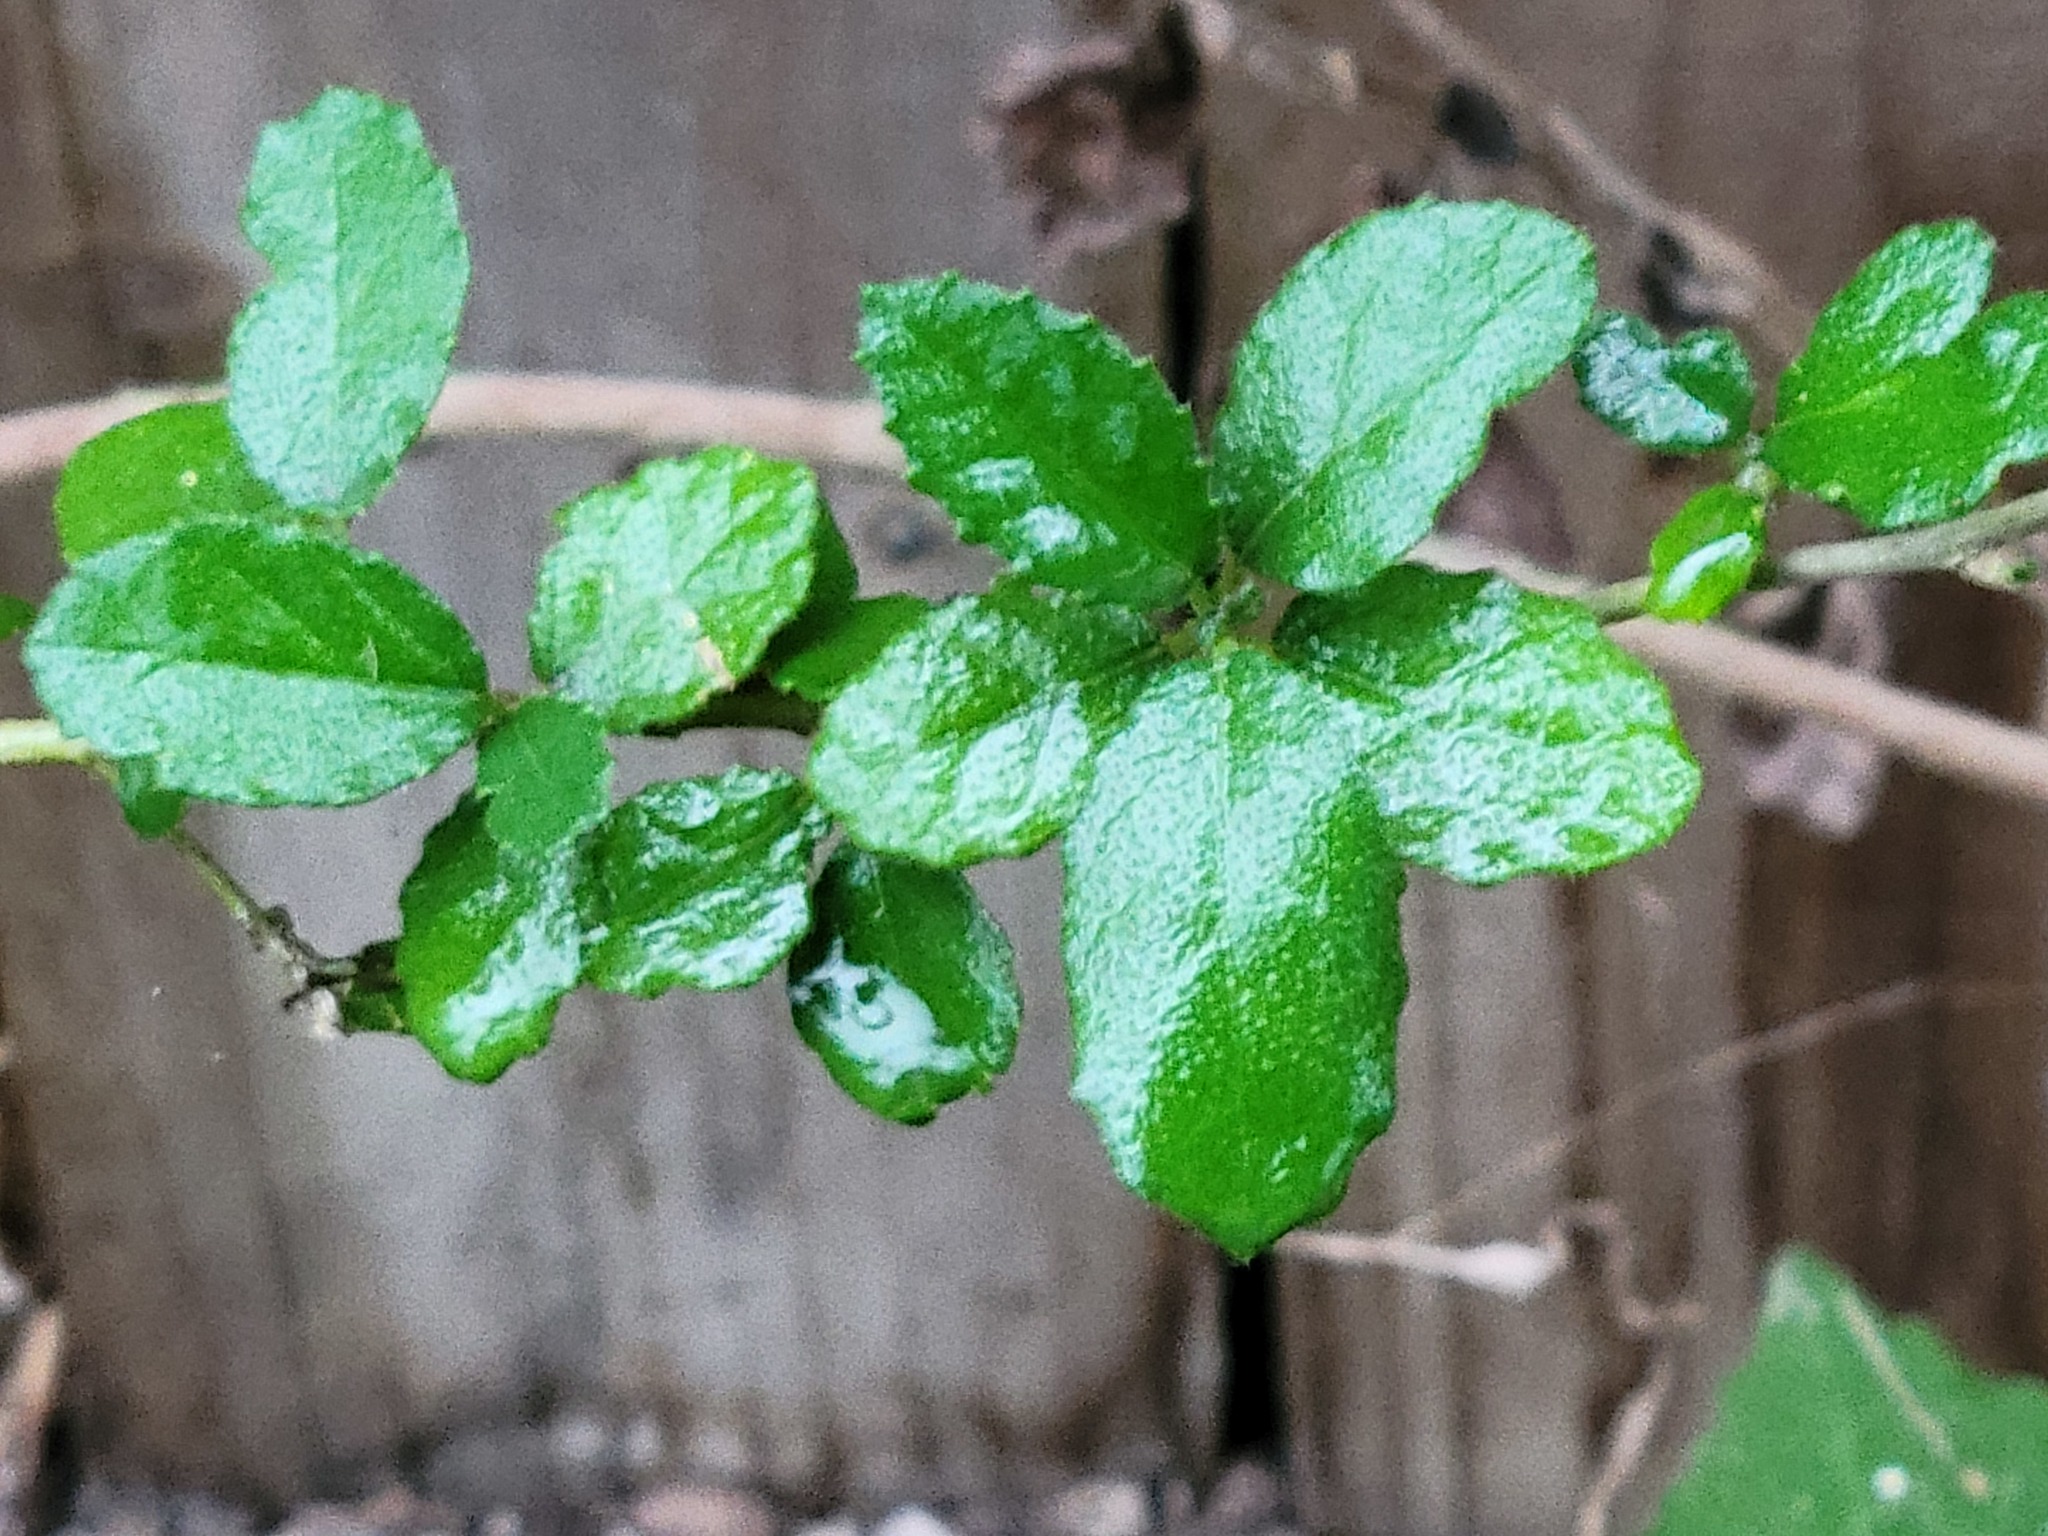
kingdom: Plantae
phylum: Tracheophyta
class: Magnoliopsida
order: Malpighiales
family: Euphorbiaceae
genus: Bernardia
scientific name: Bernardia myricifolia
